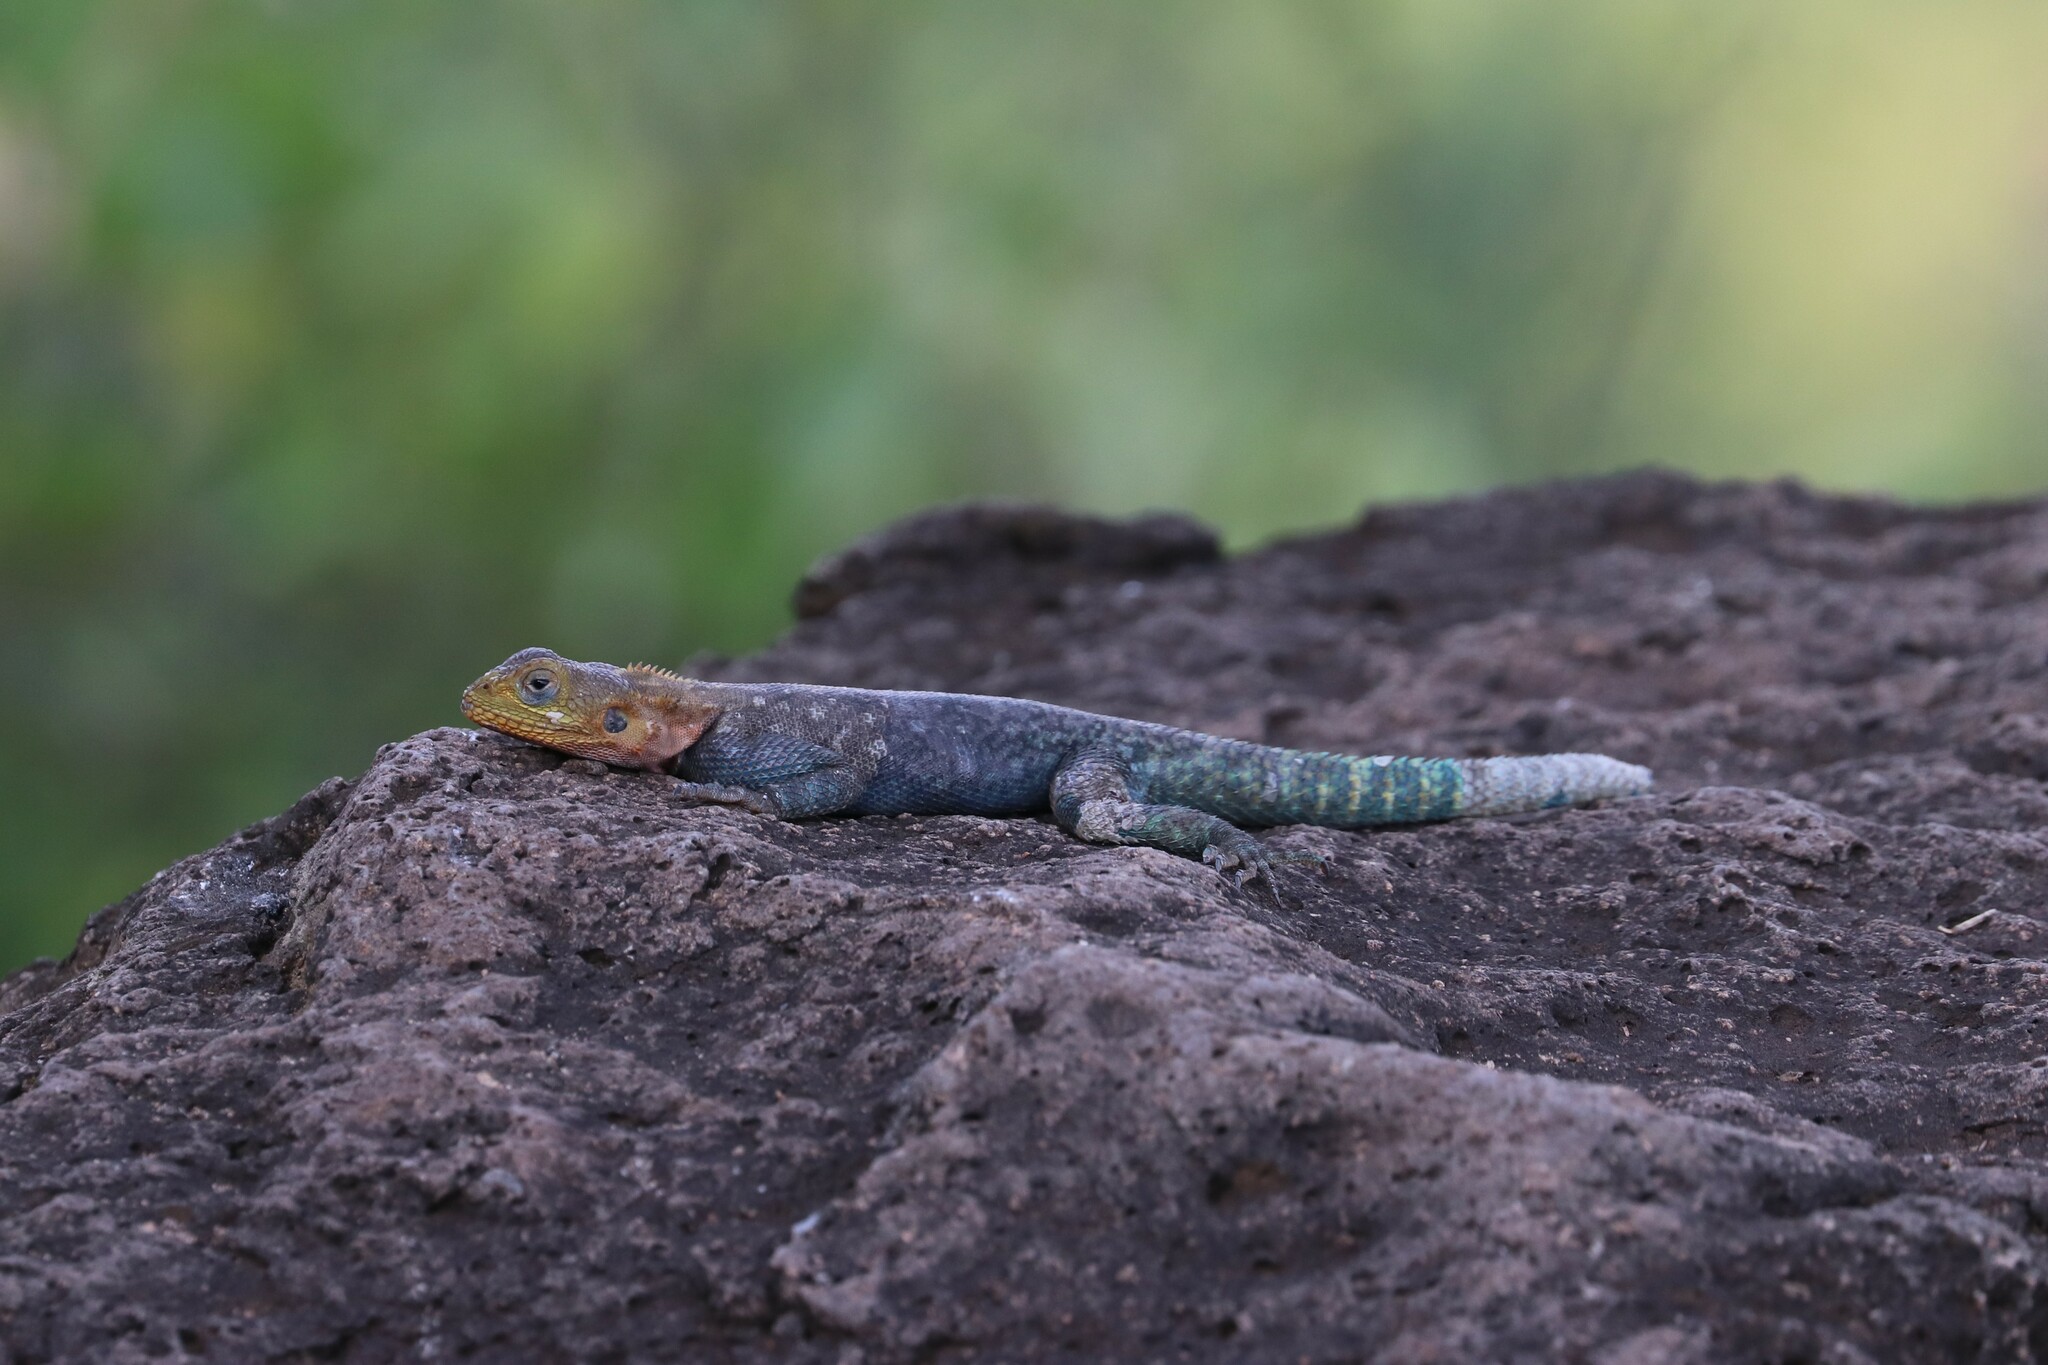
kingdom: Animalia
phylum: Chordata
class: Squamata
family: Agamidae
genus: Agama
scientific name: Agama lionotus
